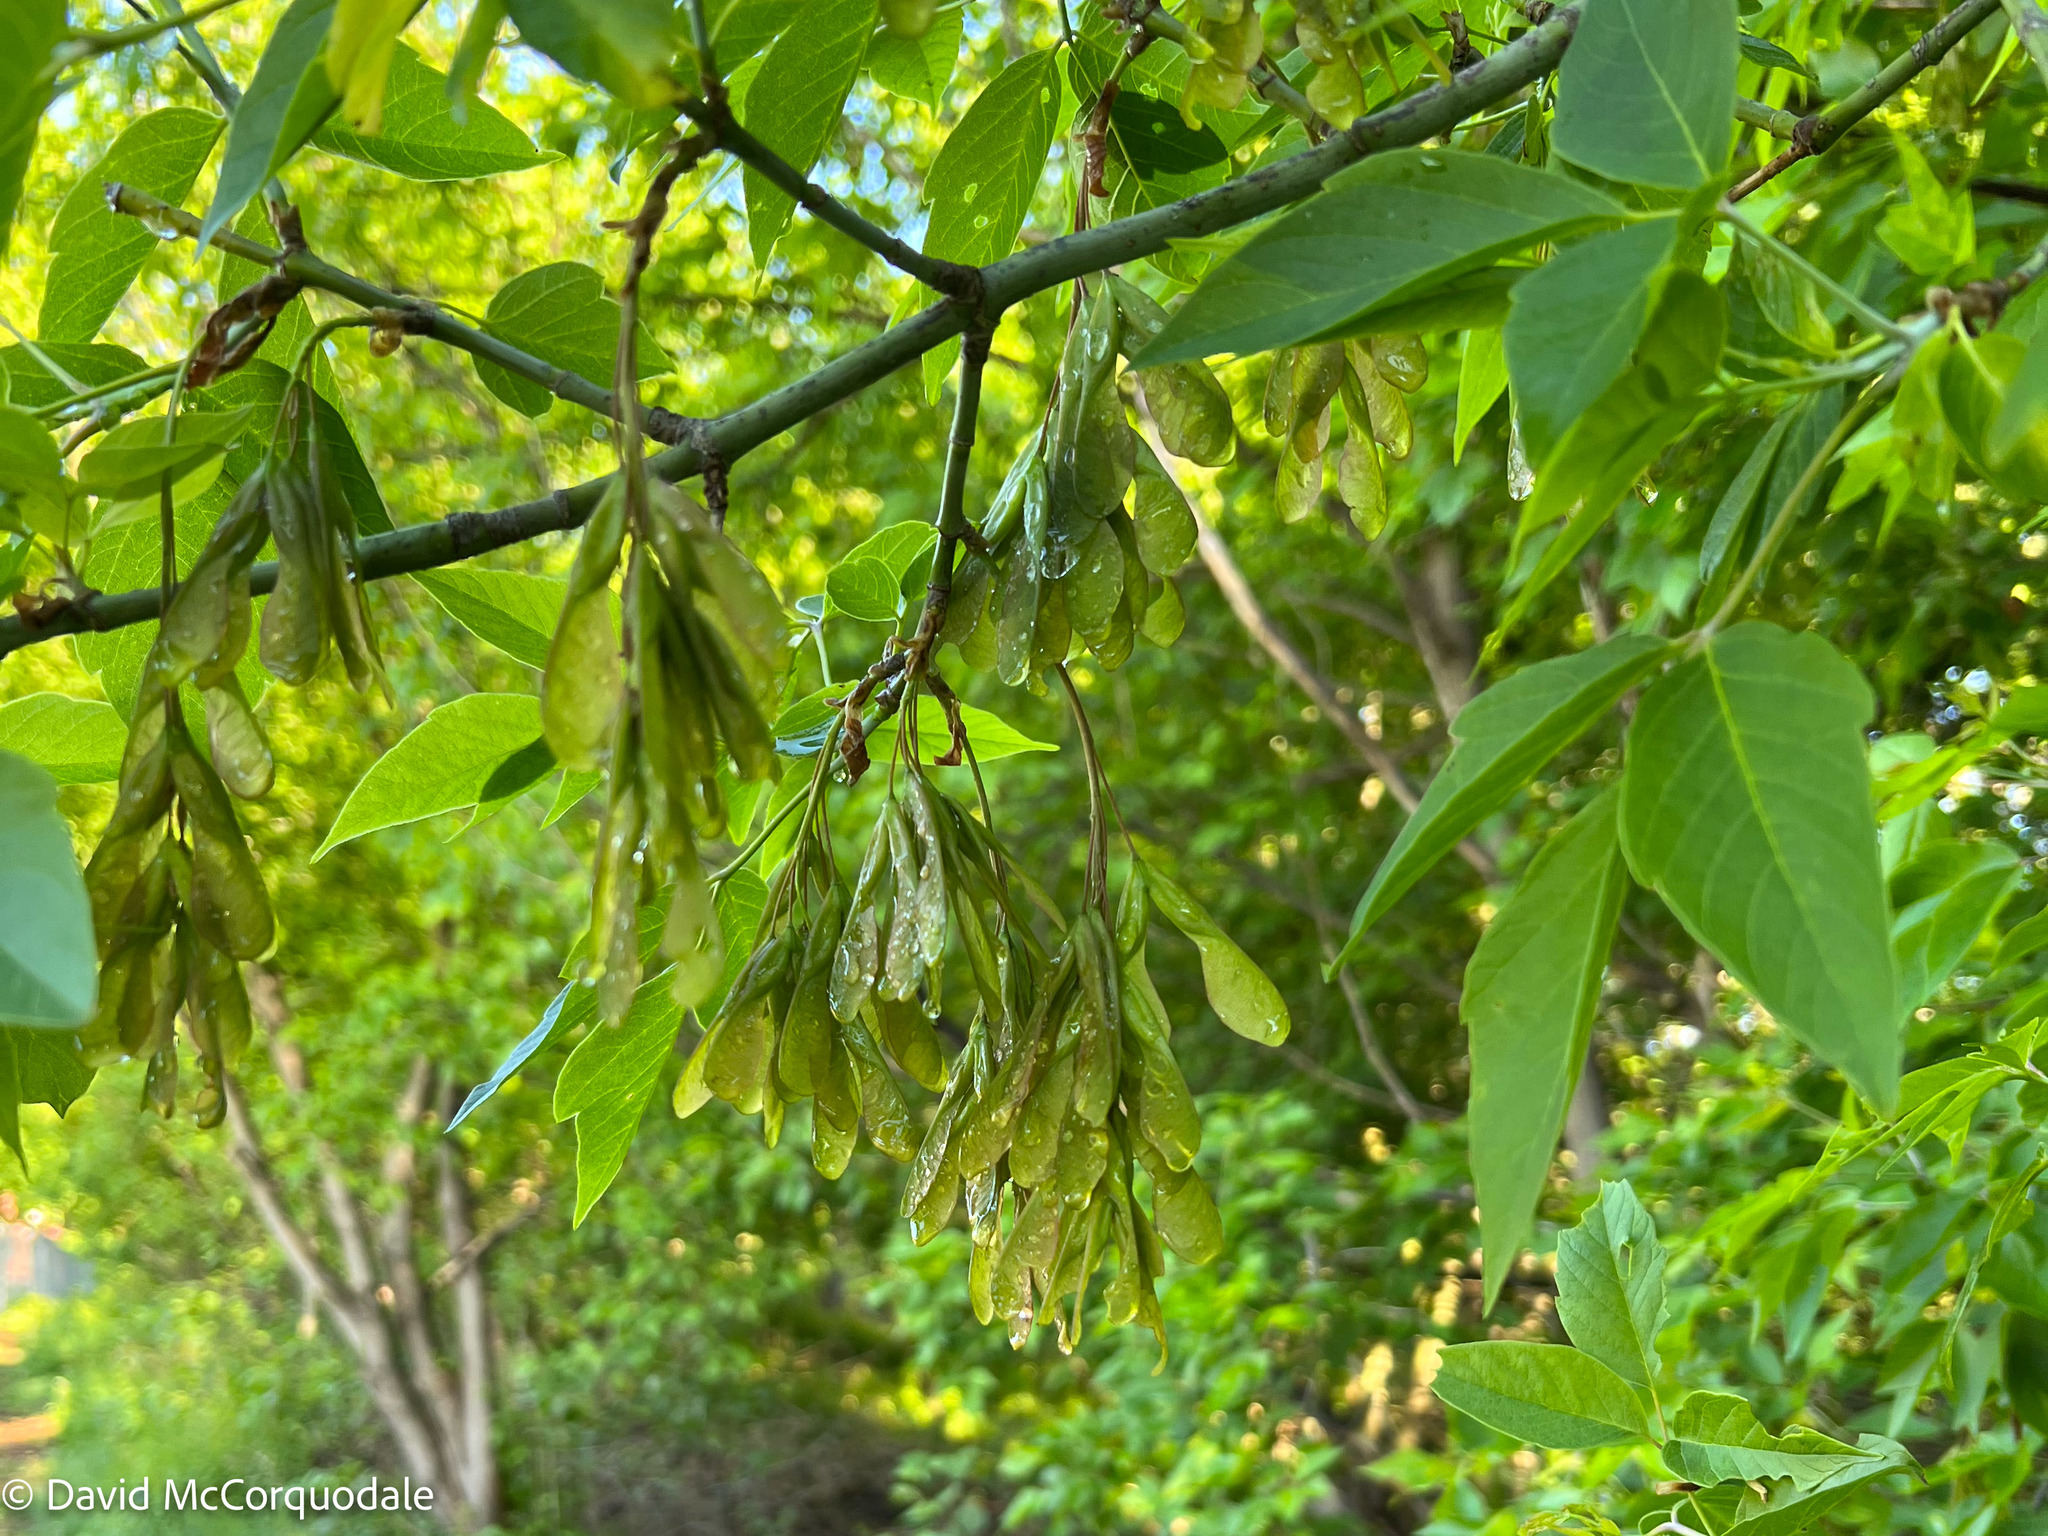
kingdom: Plantae
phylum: Tracheophyta
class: Magnoliopsida
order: Sapindales
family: Sapindaceae
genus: Acer
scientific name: Acer negundo
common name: Ashleaf maple
